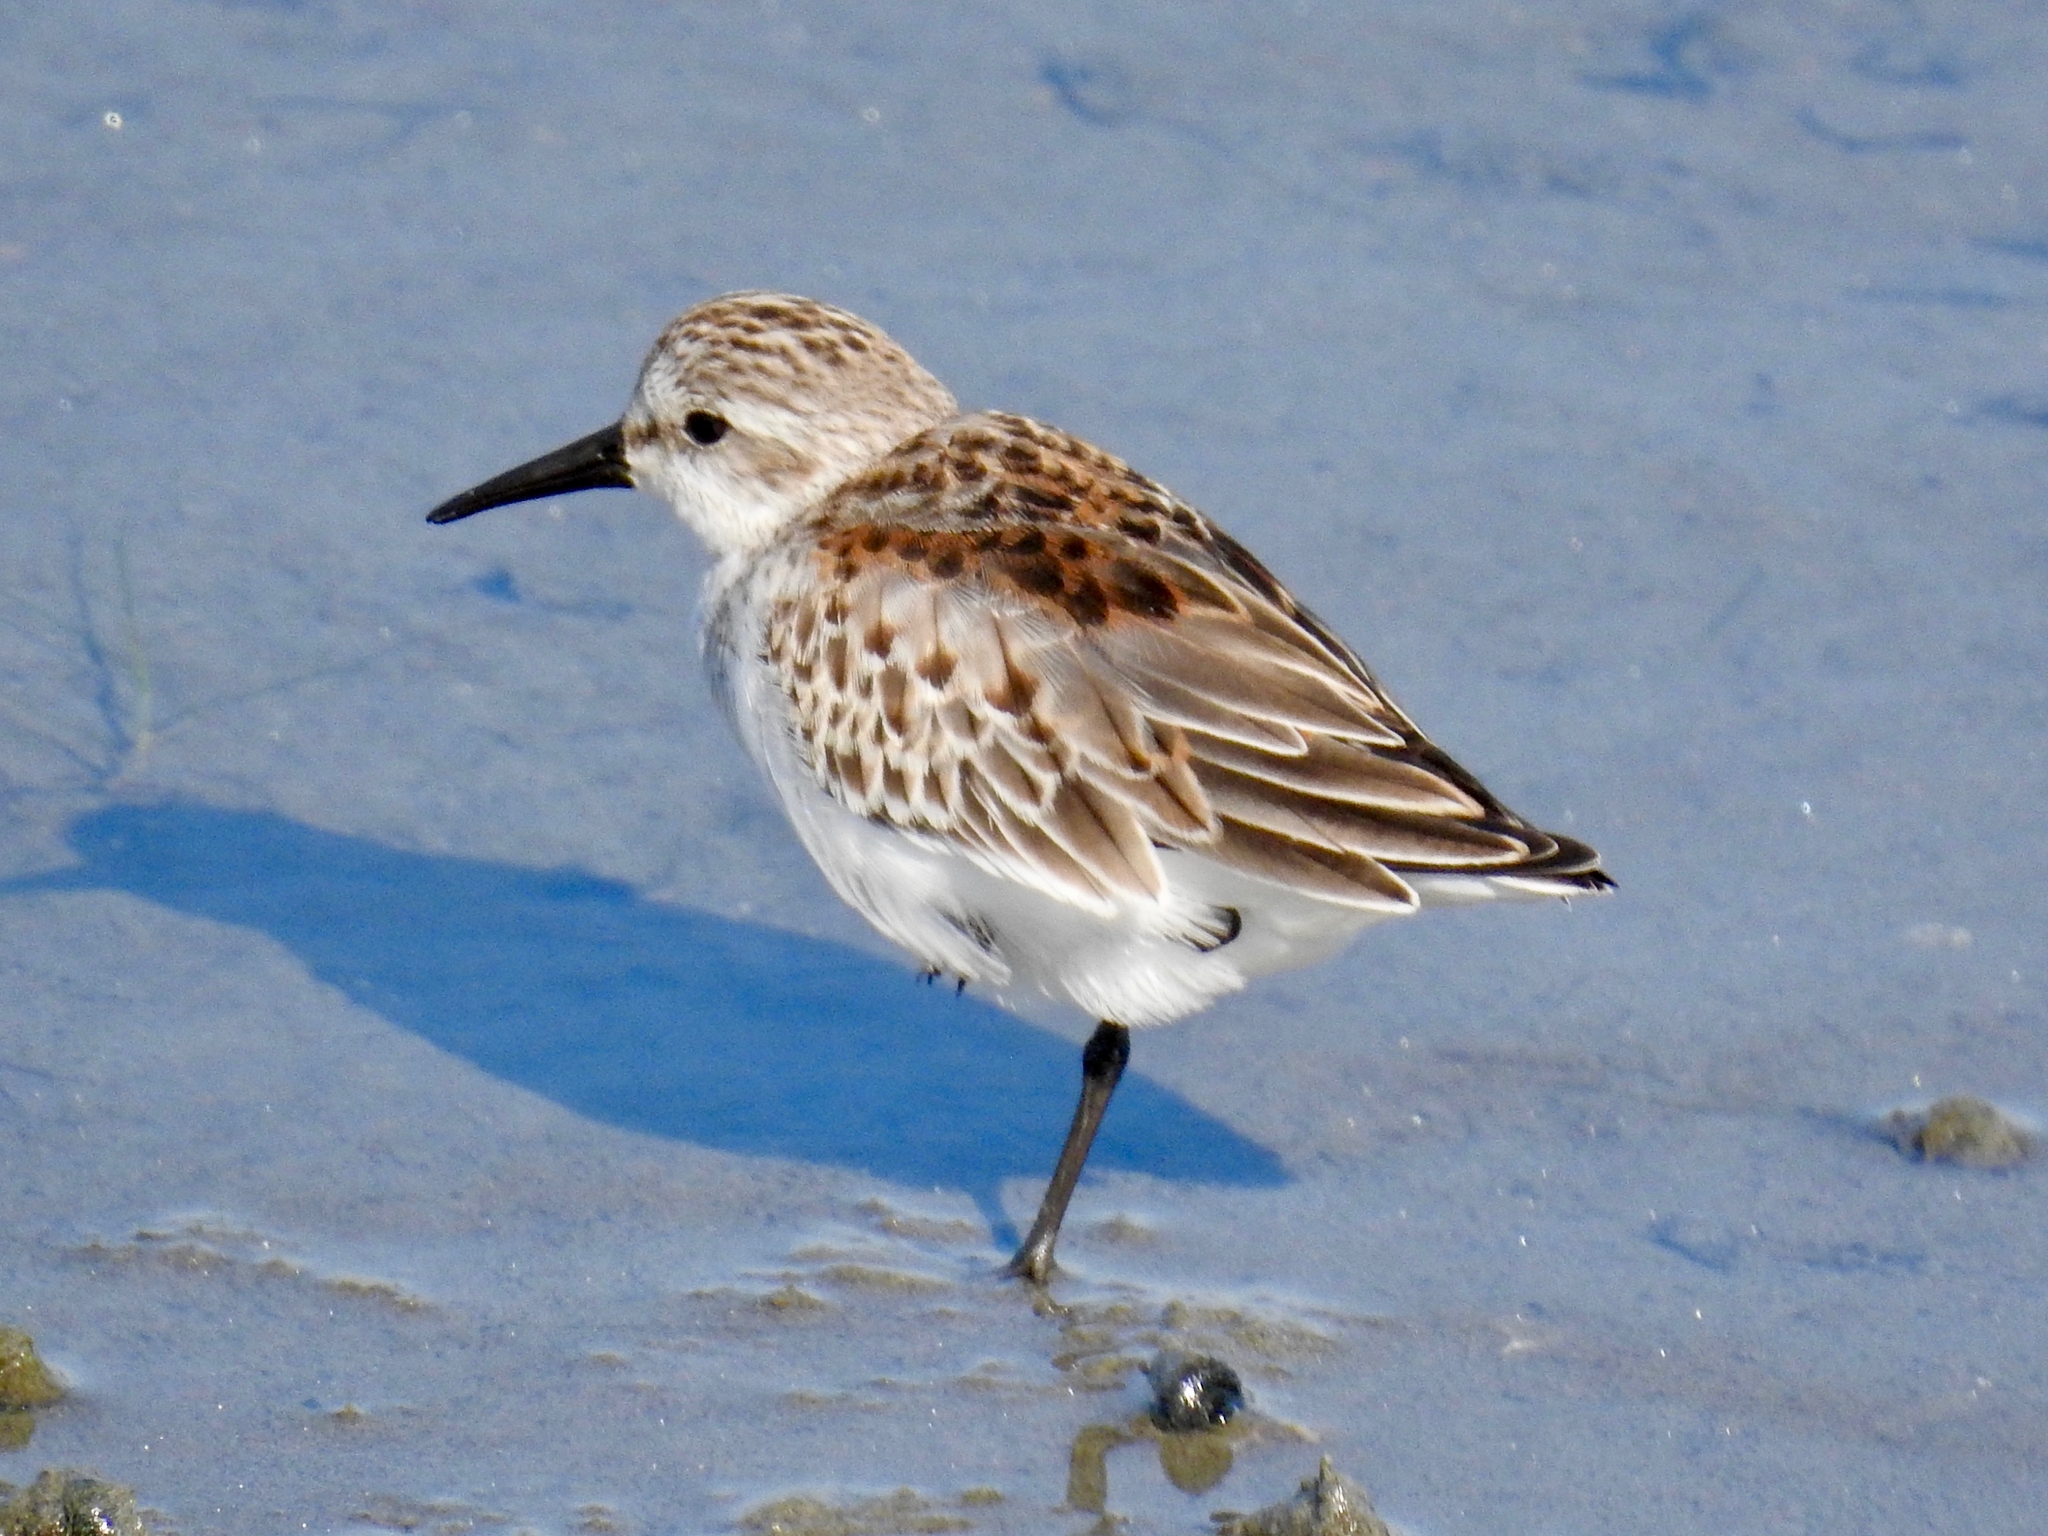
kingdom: Animalia
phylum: Chordata
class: Aves
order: Charadriiformes
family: Scolopacidae
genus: Calidris
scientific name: Calidris mauri
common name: Western sandpiper
